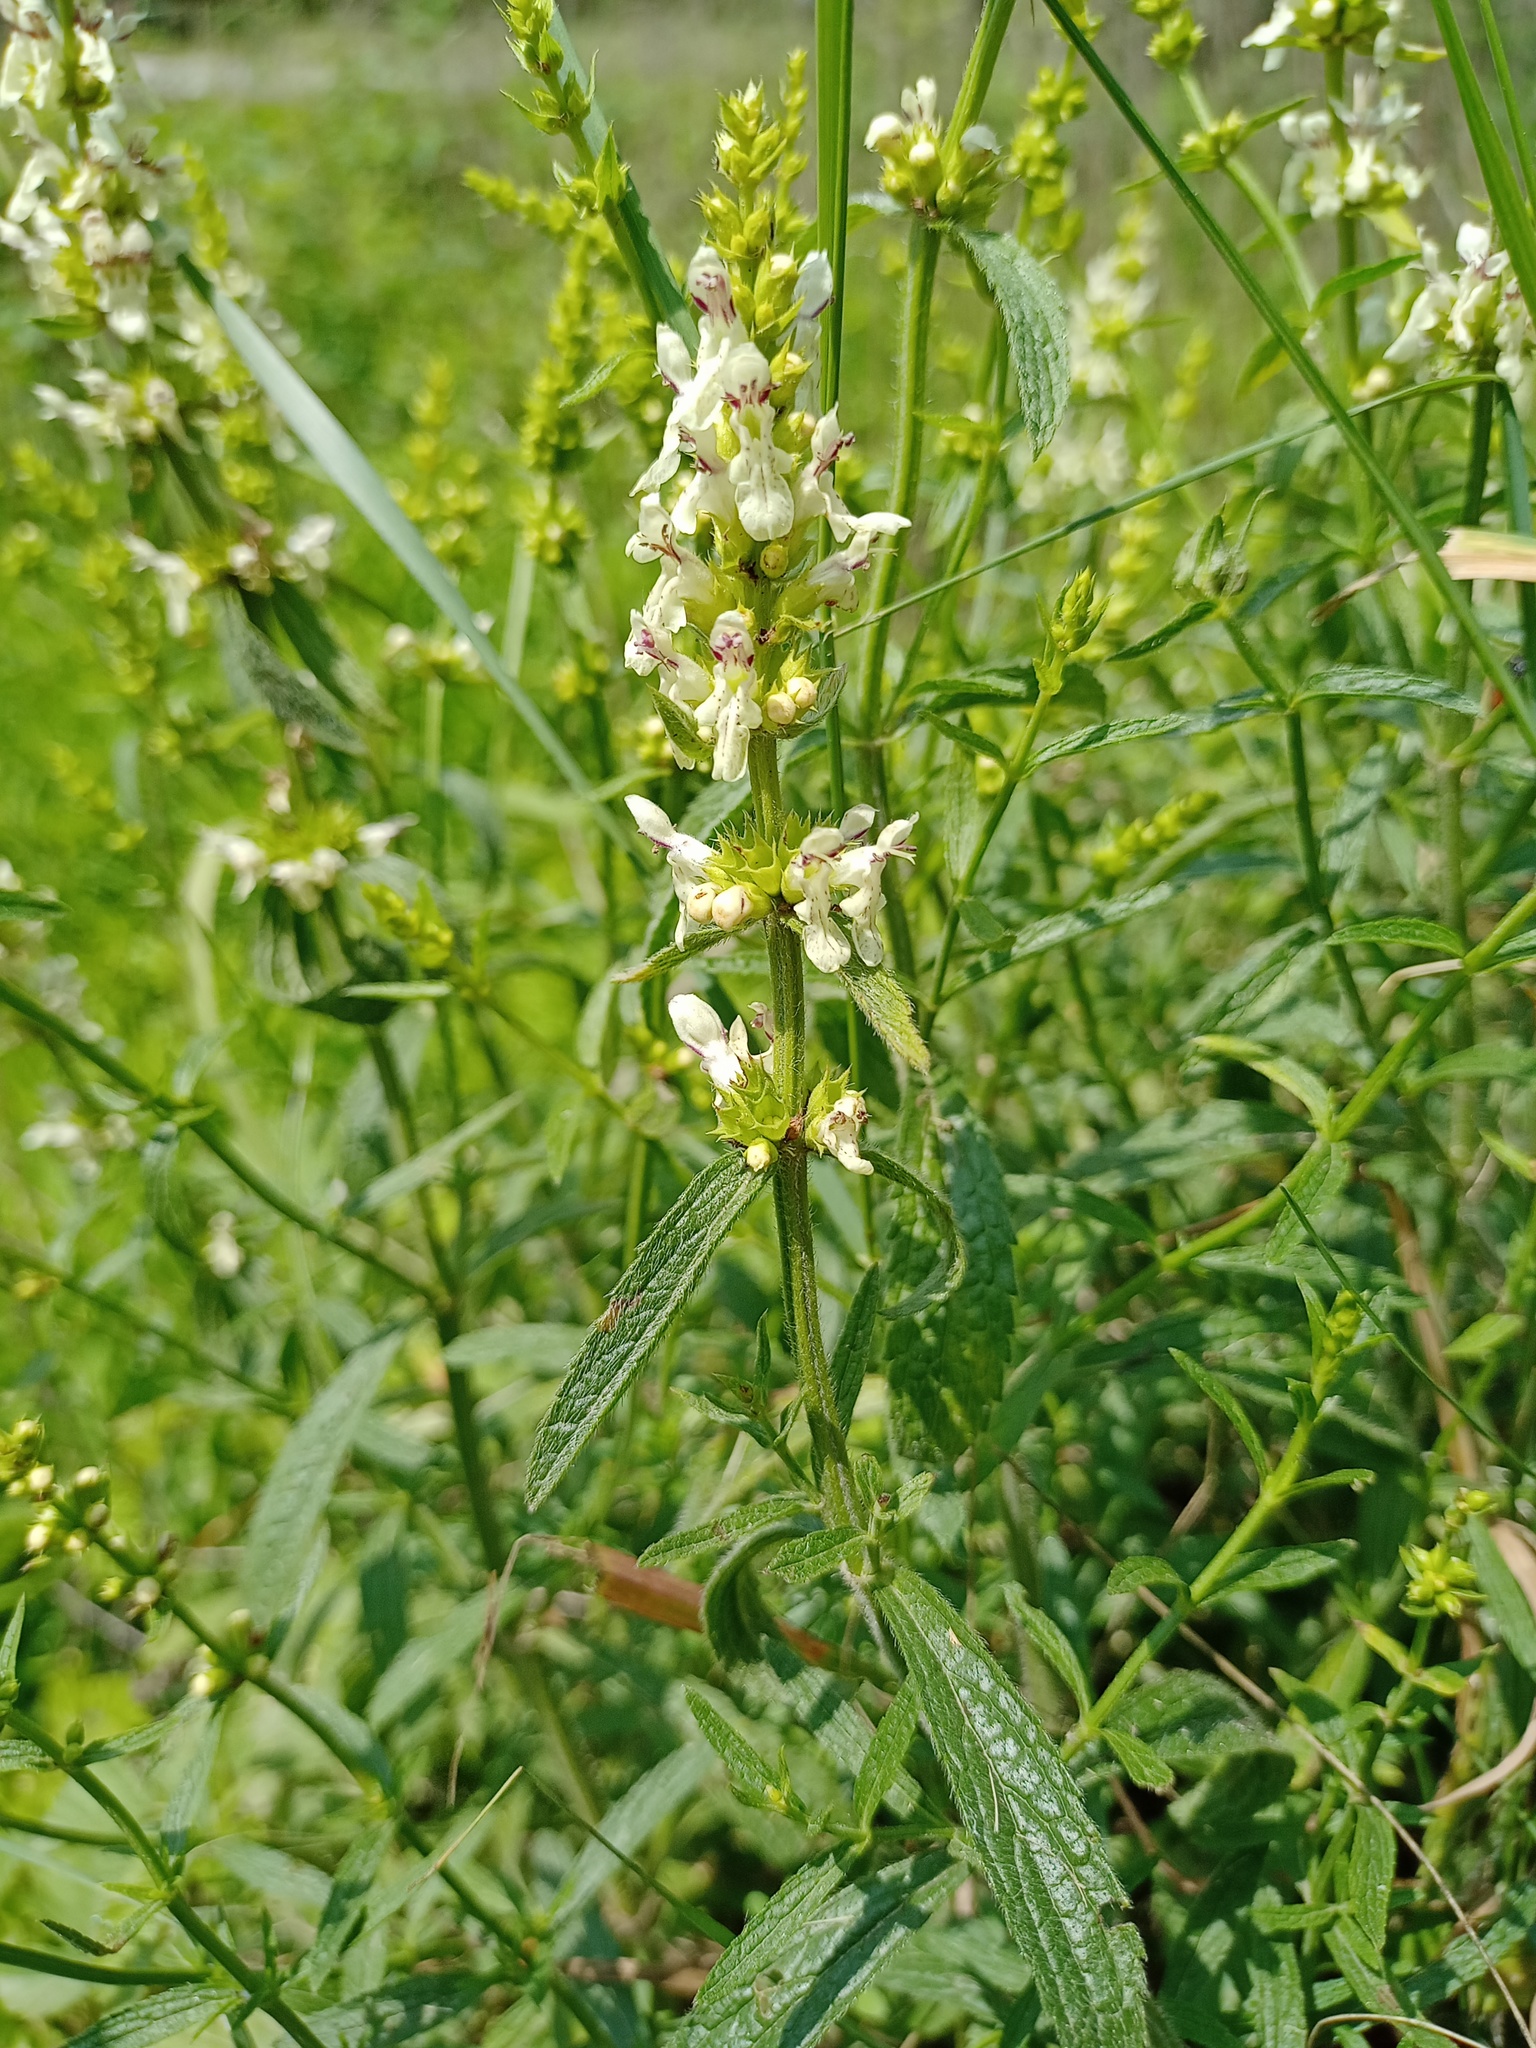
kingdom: Plantae
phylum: Tracheophyta
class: Magnoliopsida
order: Lamiales
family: Lamiaceae
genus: Stachys
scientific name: Stachys recta
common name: Perennial yellow-woundwort
